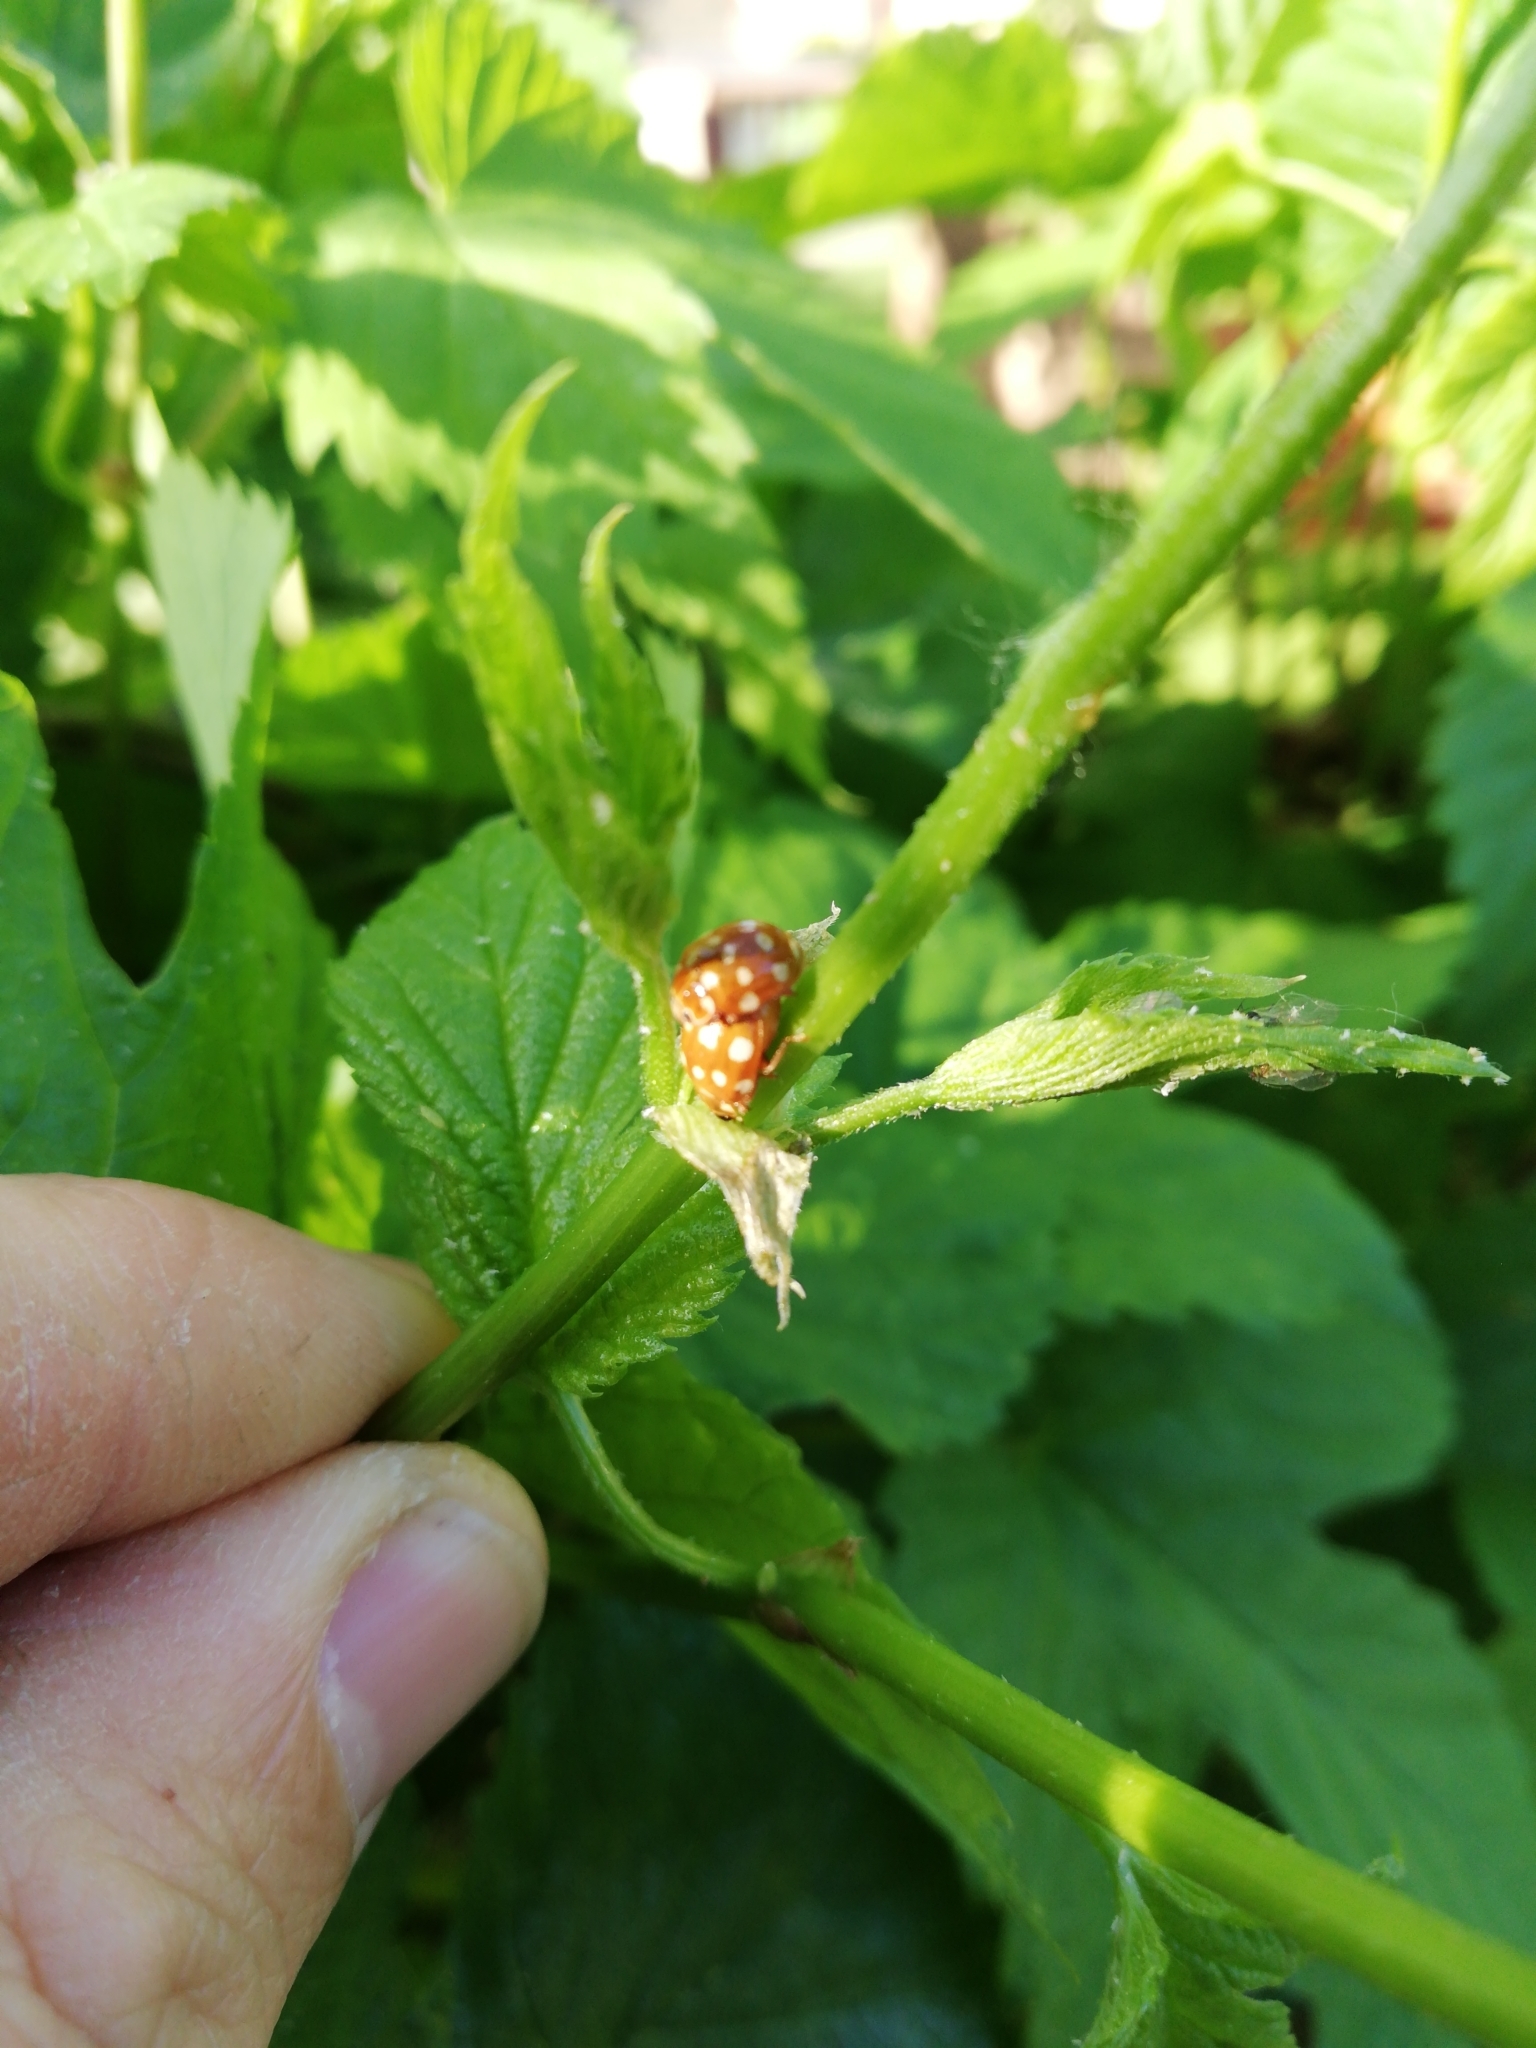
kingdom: Animalia
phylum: Arthropoda
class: Insecta
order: Coleoptera
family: Coccinellidae
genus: Calvia
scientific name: Calvia quatuordecimguttata
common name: Cream-spot ladybird
